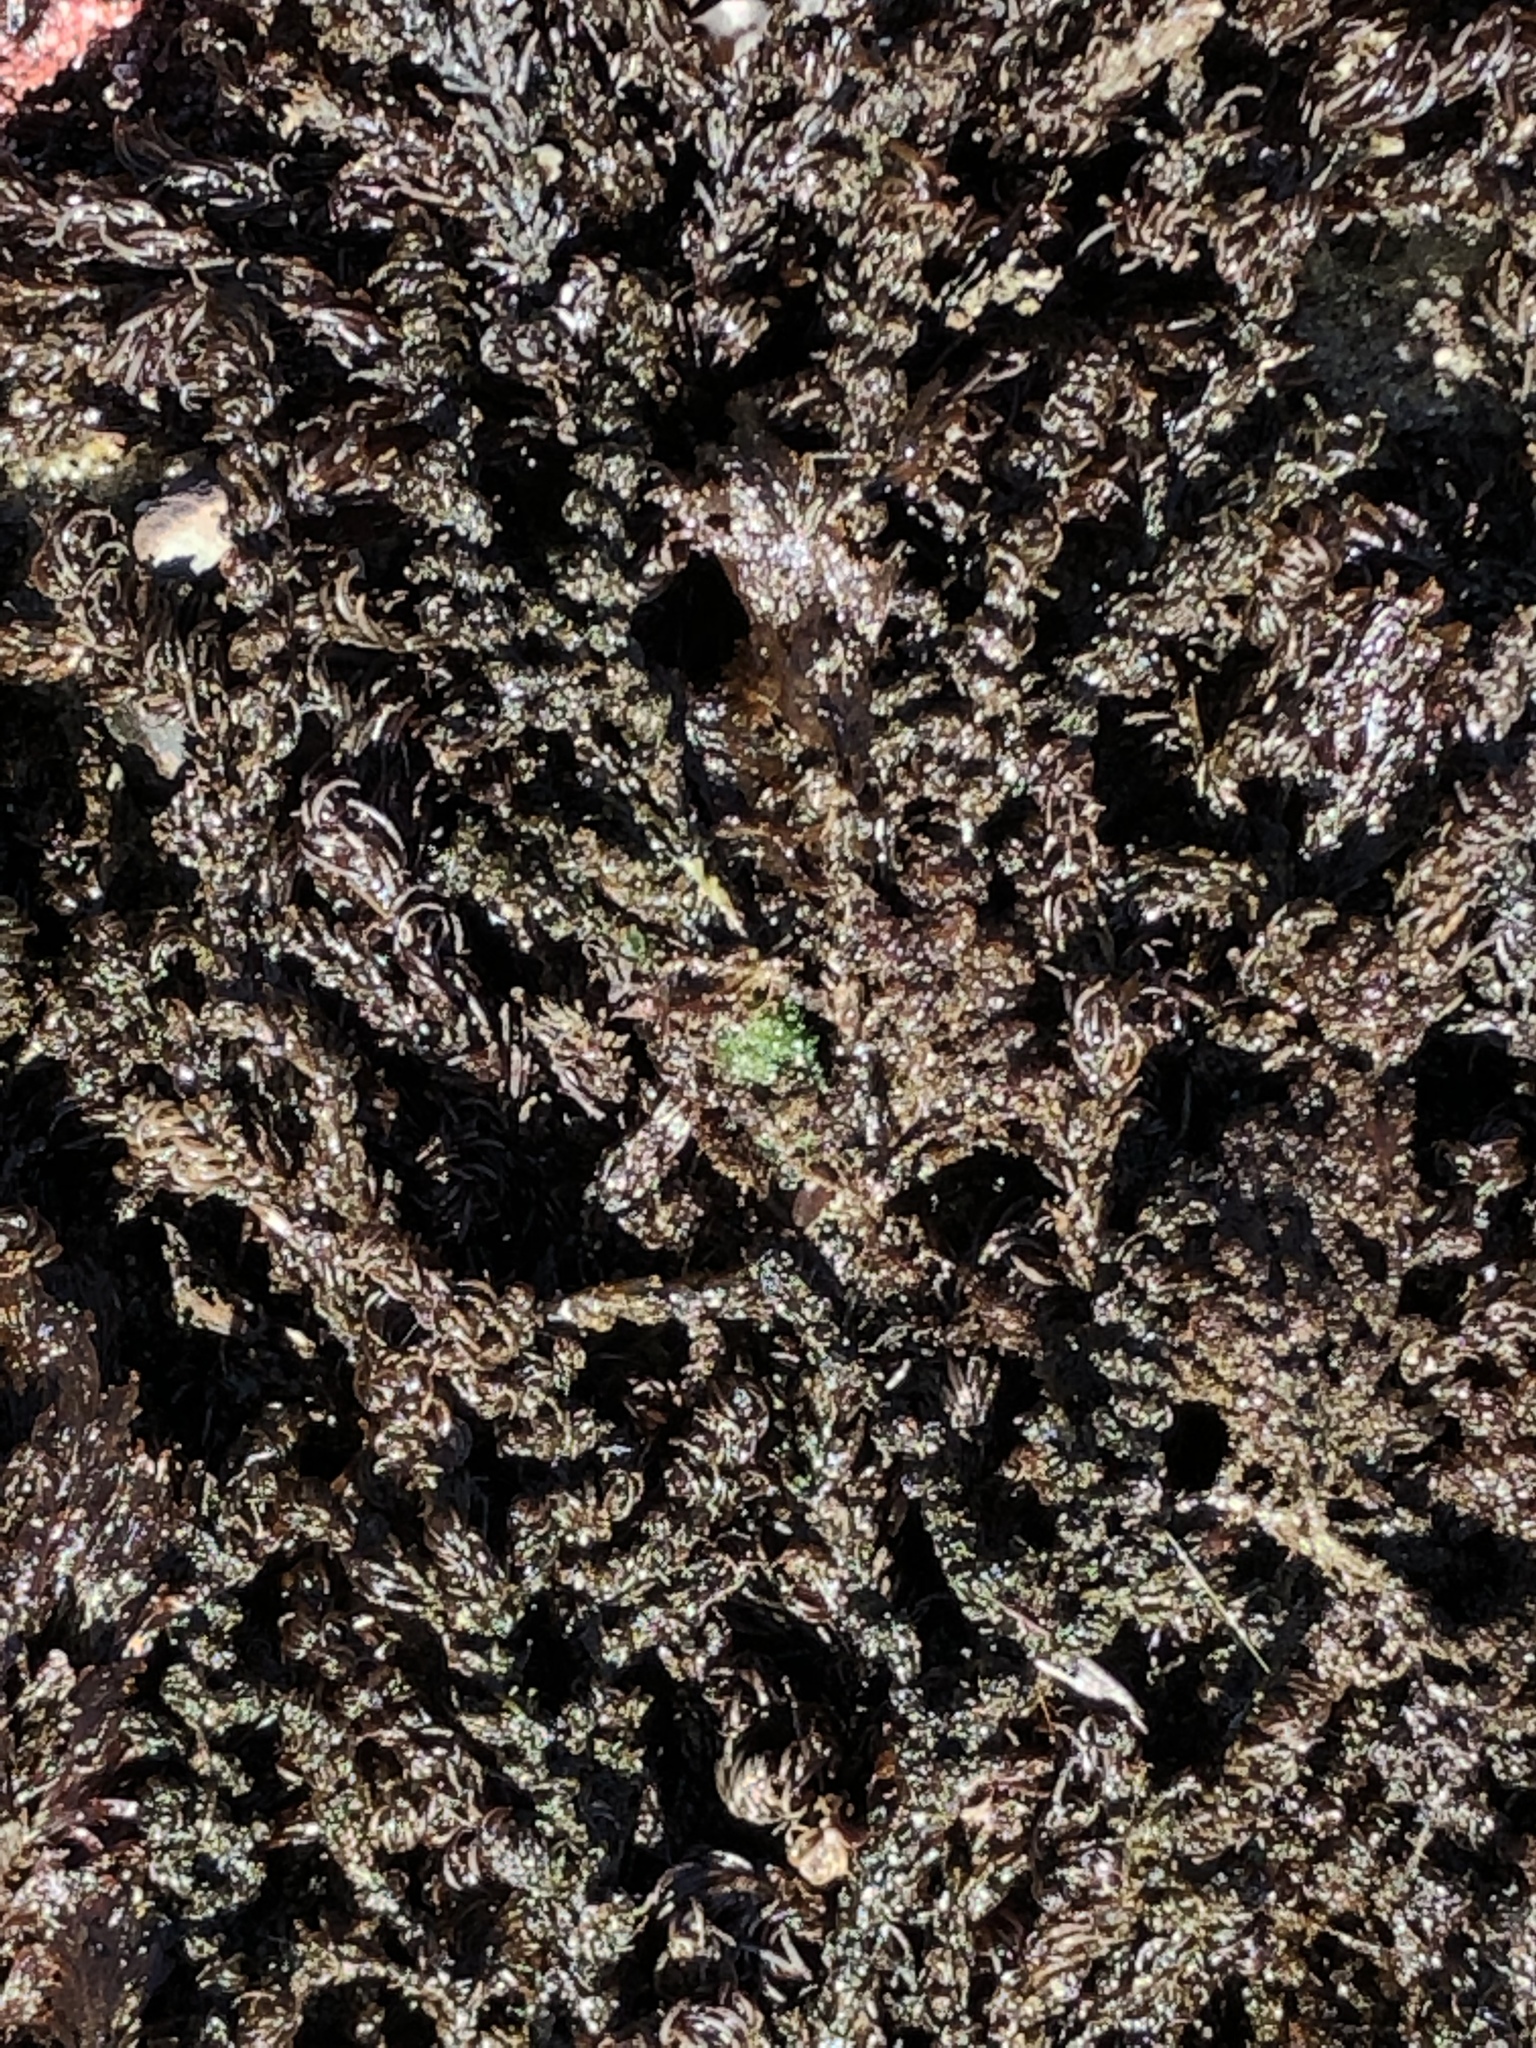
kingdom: Plantae
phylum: Rhodophyta
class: Florideophyceae
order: Ceramiales
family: Rhodomelaceae
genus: Neorhodomela
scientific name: Neorhodomela larix
